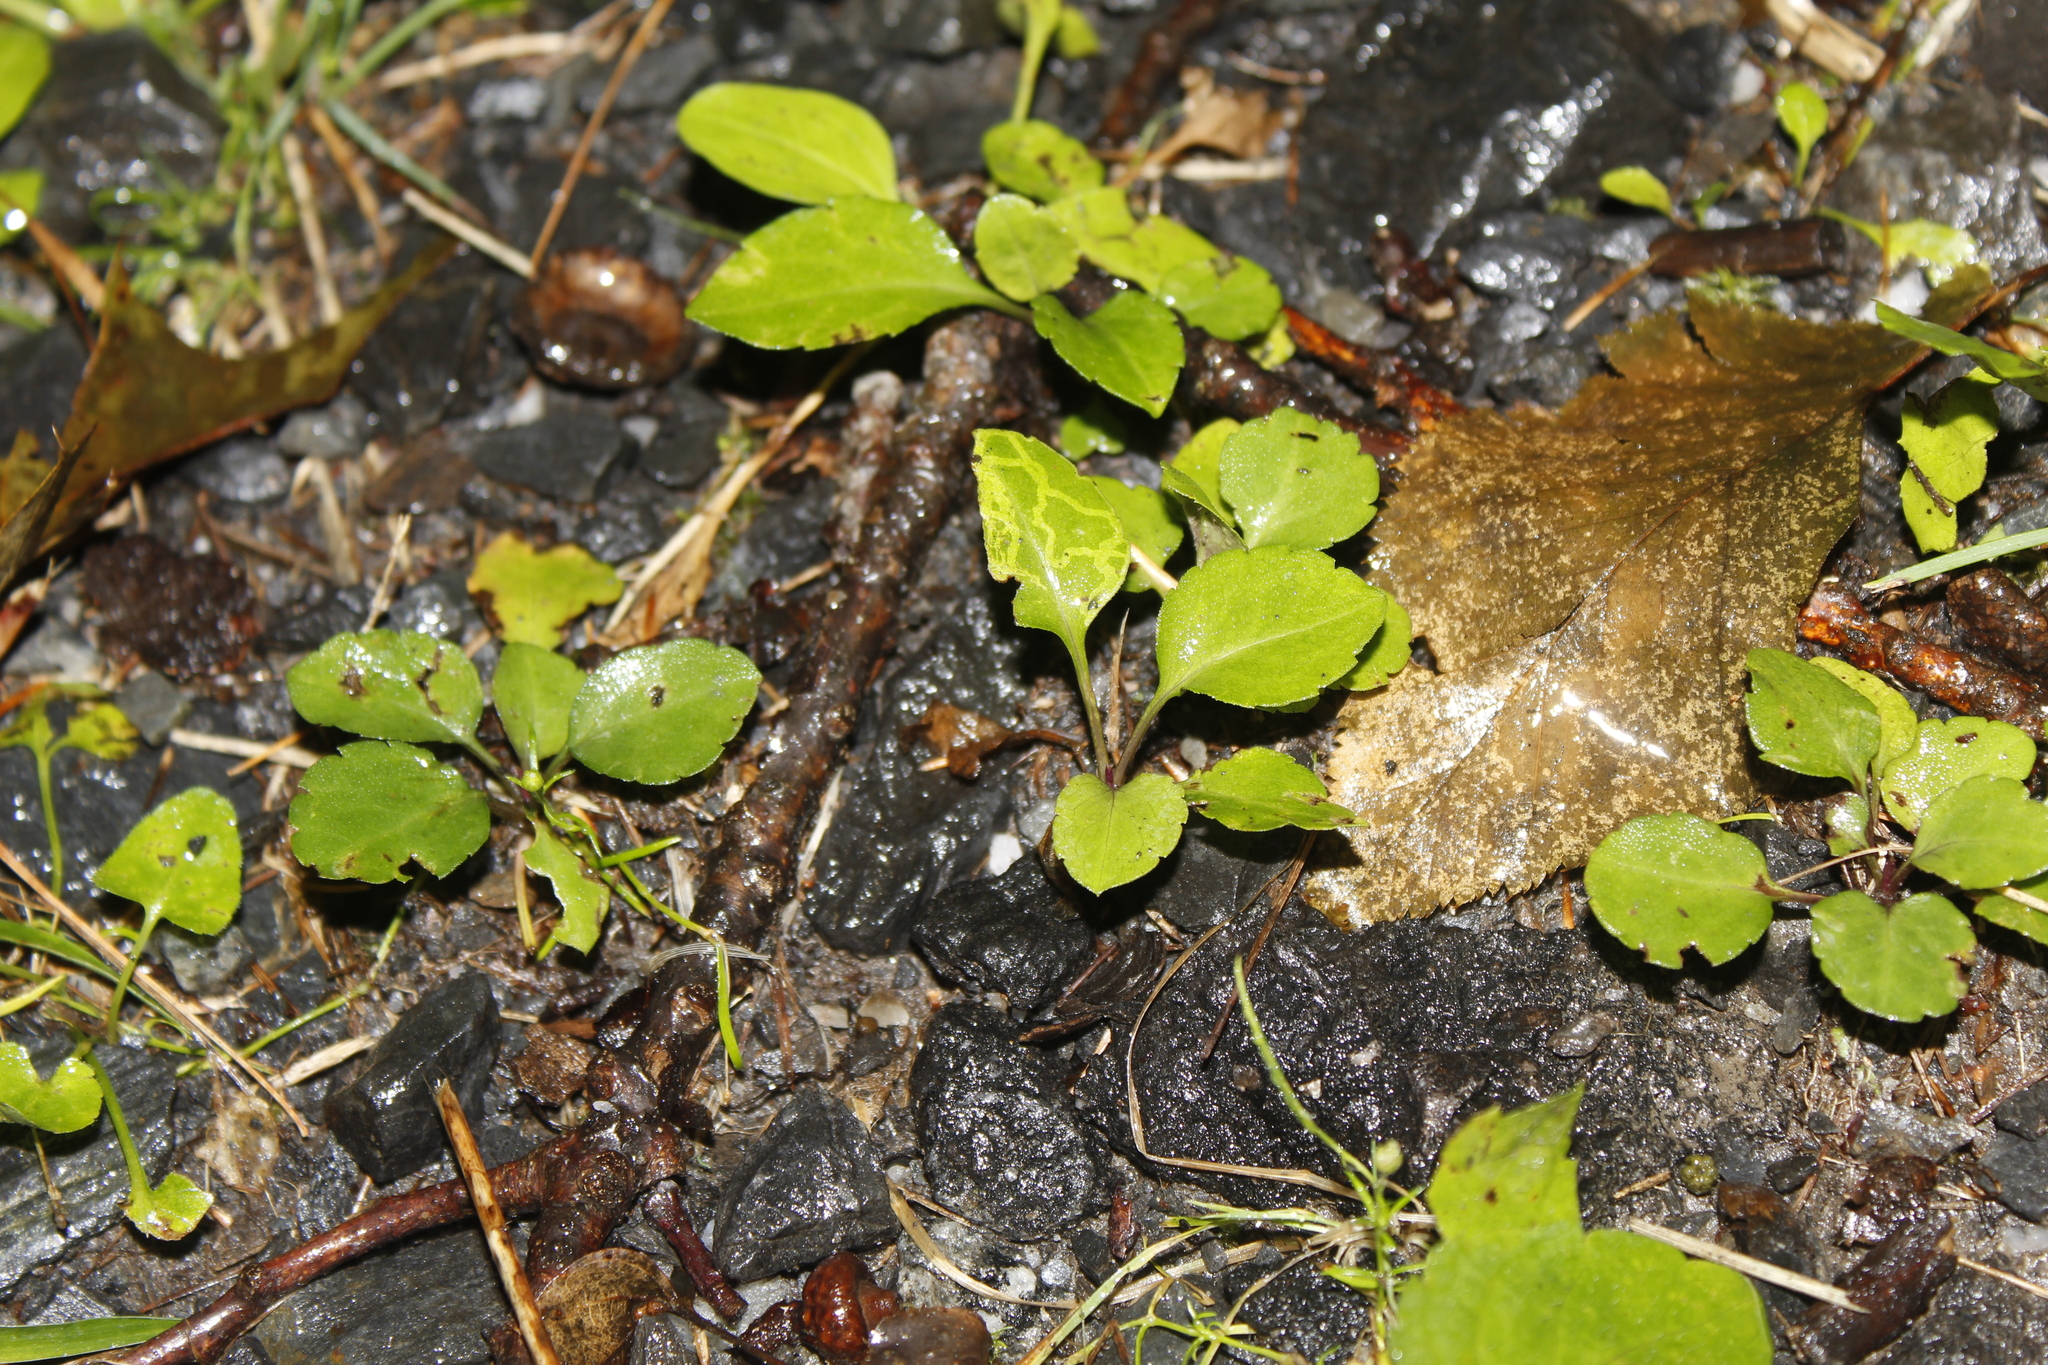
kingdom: Animalia
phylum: Arthropoda
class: Insecta
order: Diptera
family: Agromyzidae
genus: Ophiomyia
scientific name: Ophiomyia parda
